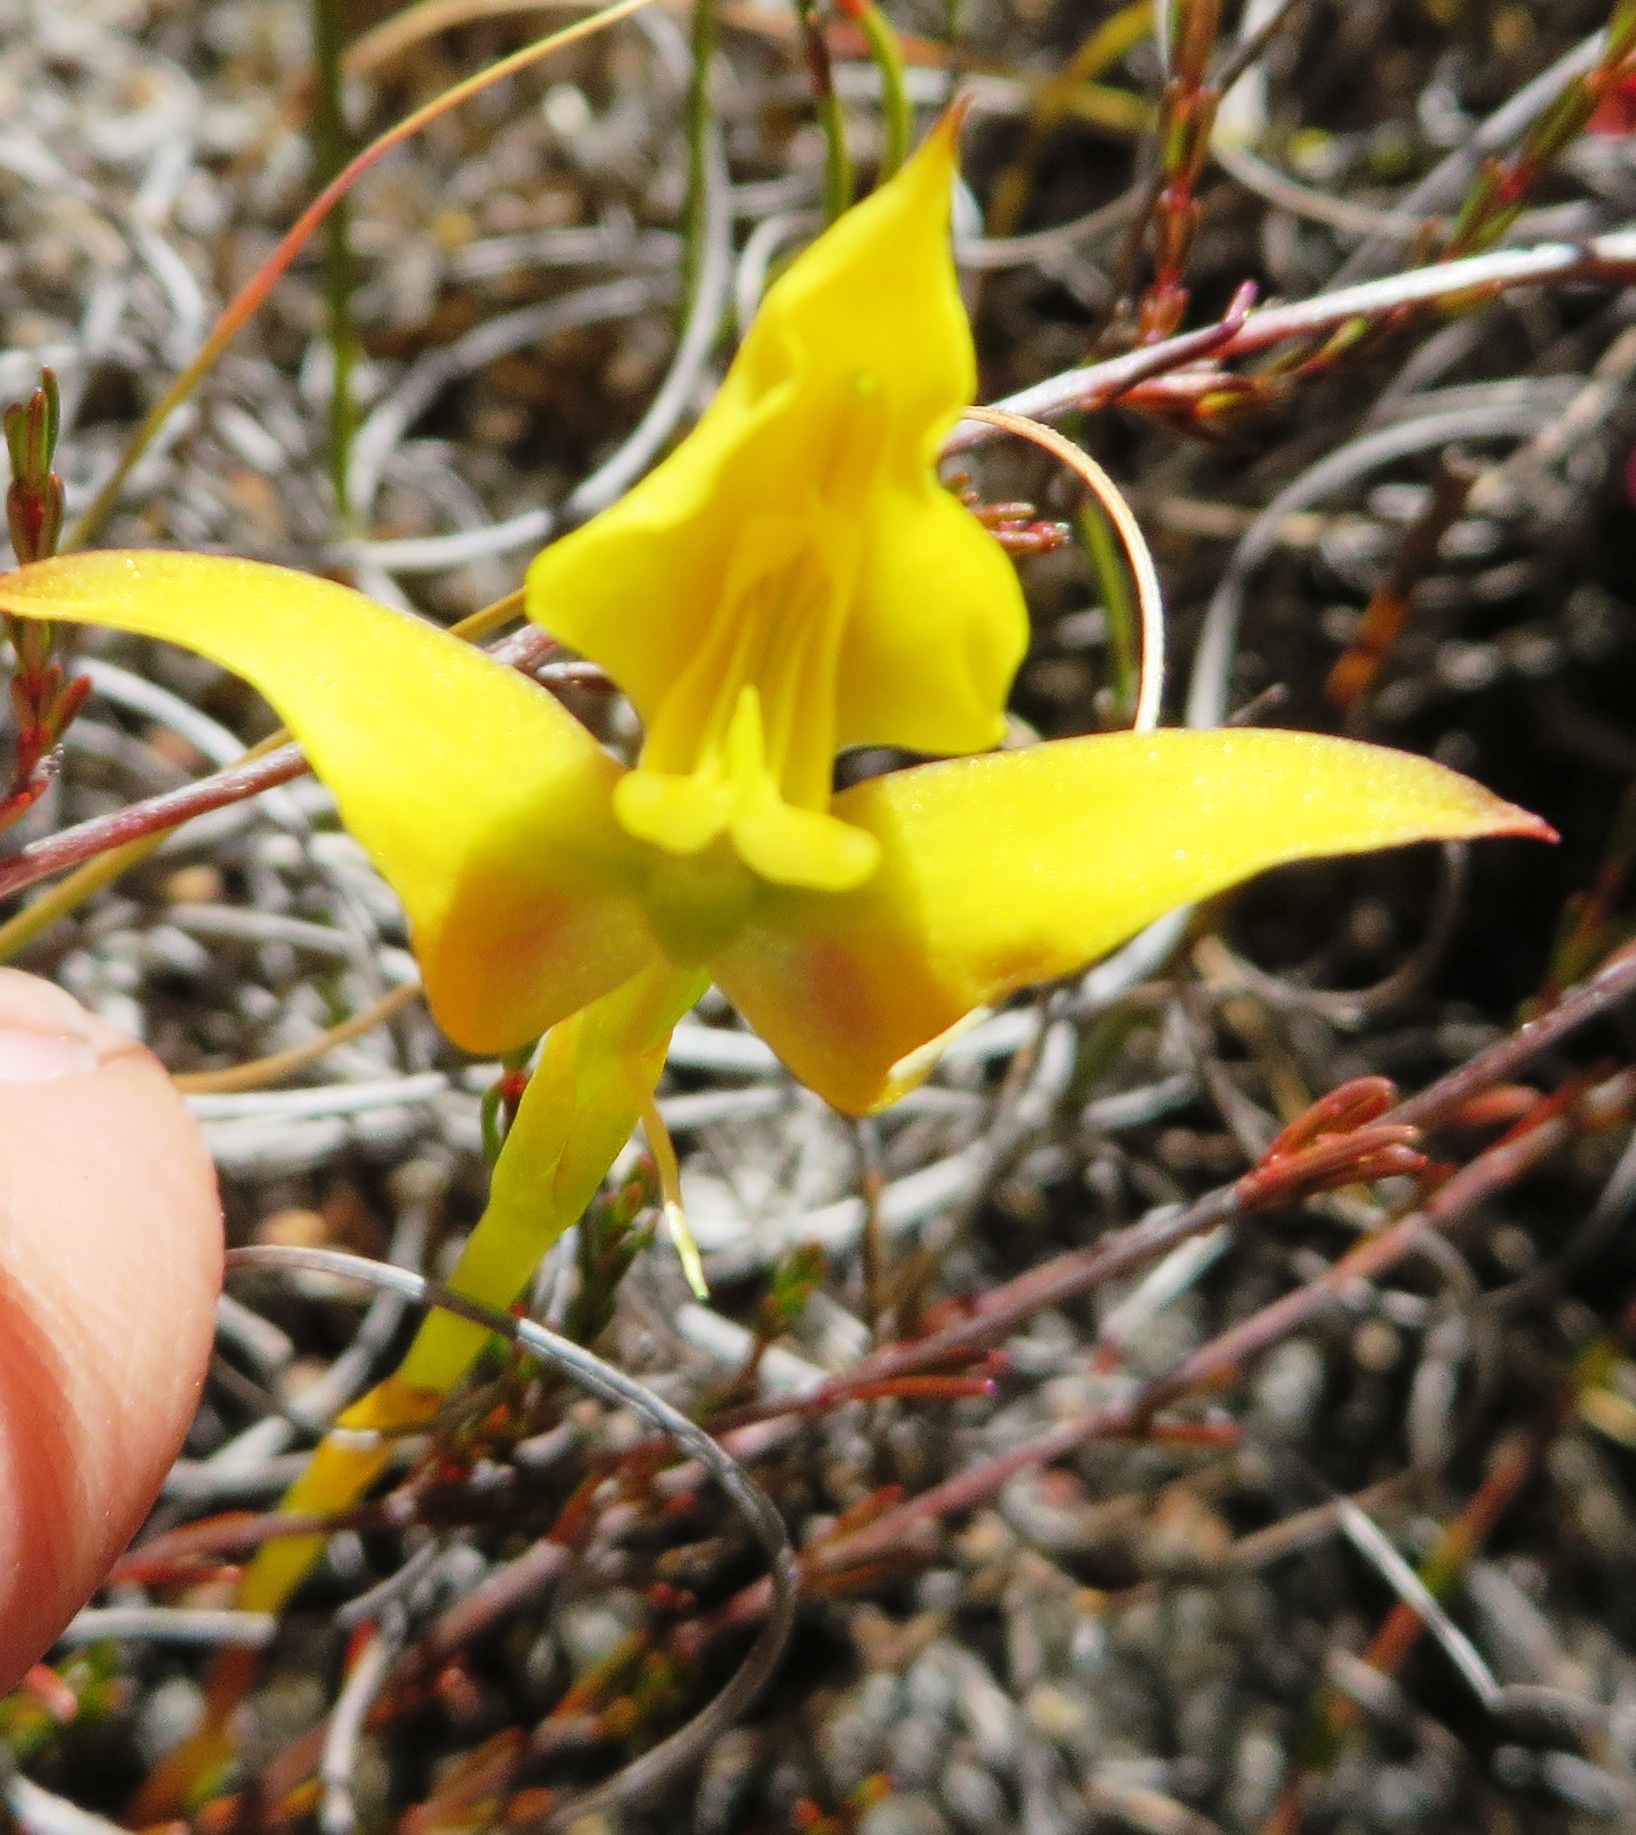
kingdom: Plantae
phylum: Tracheophyta
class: Liliopsida
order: Asparagales
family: Orchidaceae
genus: Disa
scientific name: Disa tenuifolia
